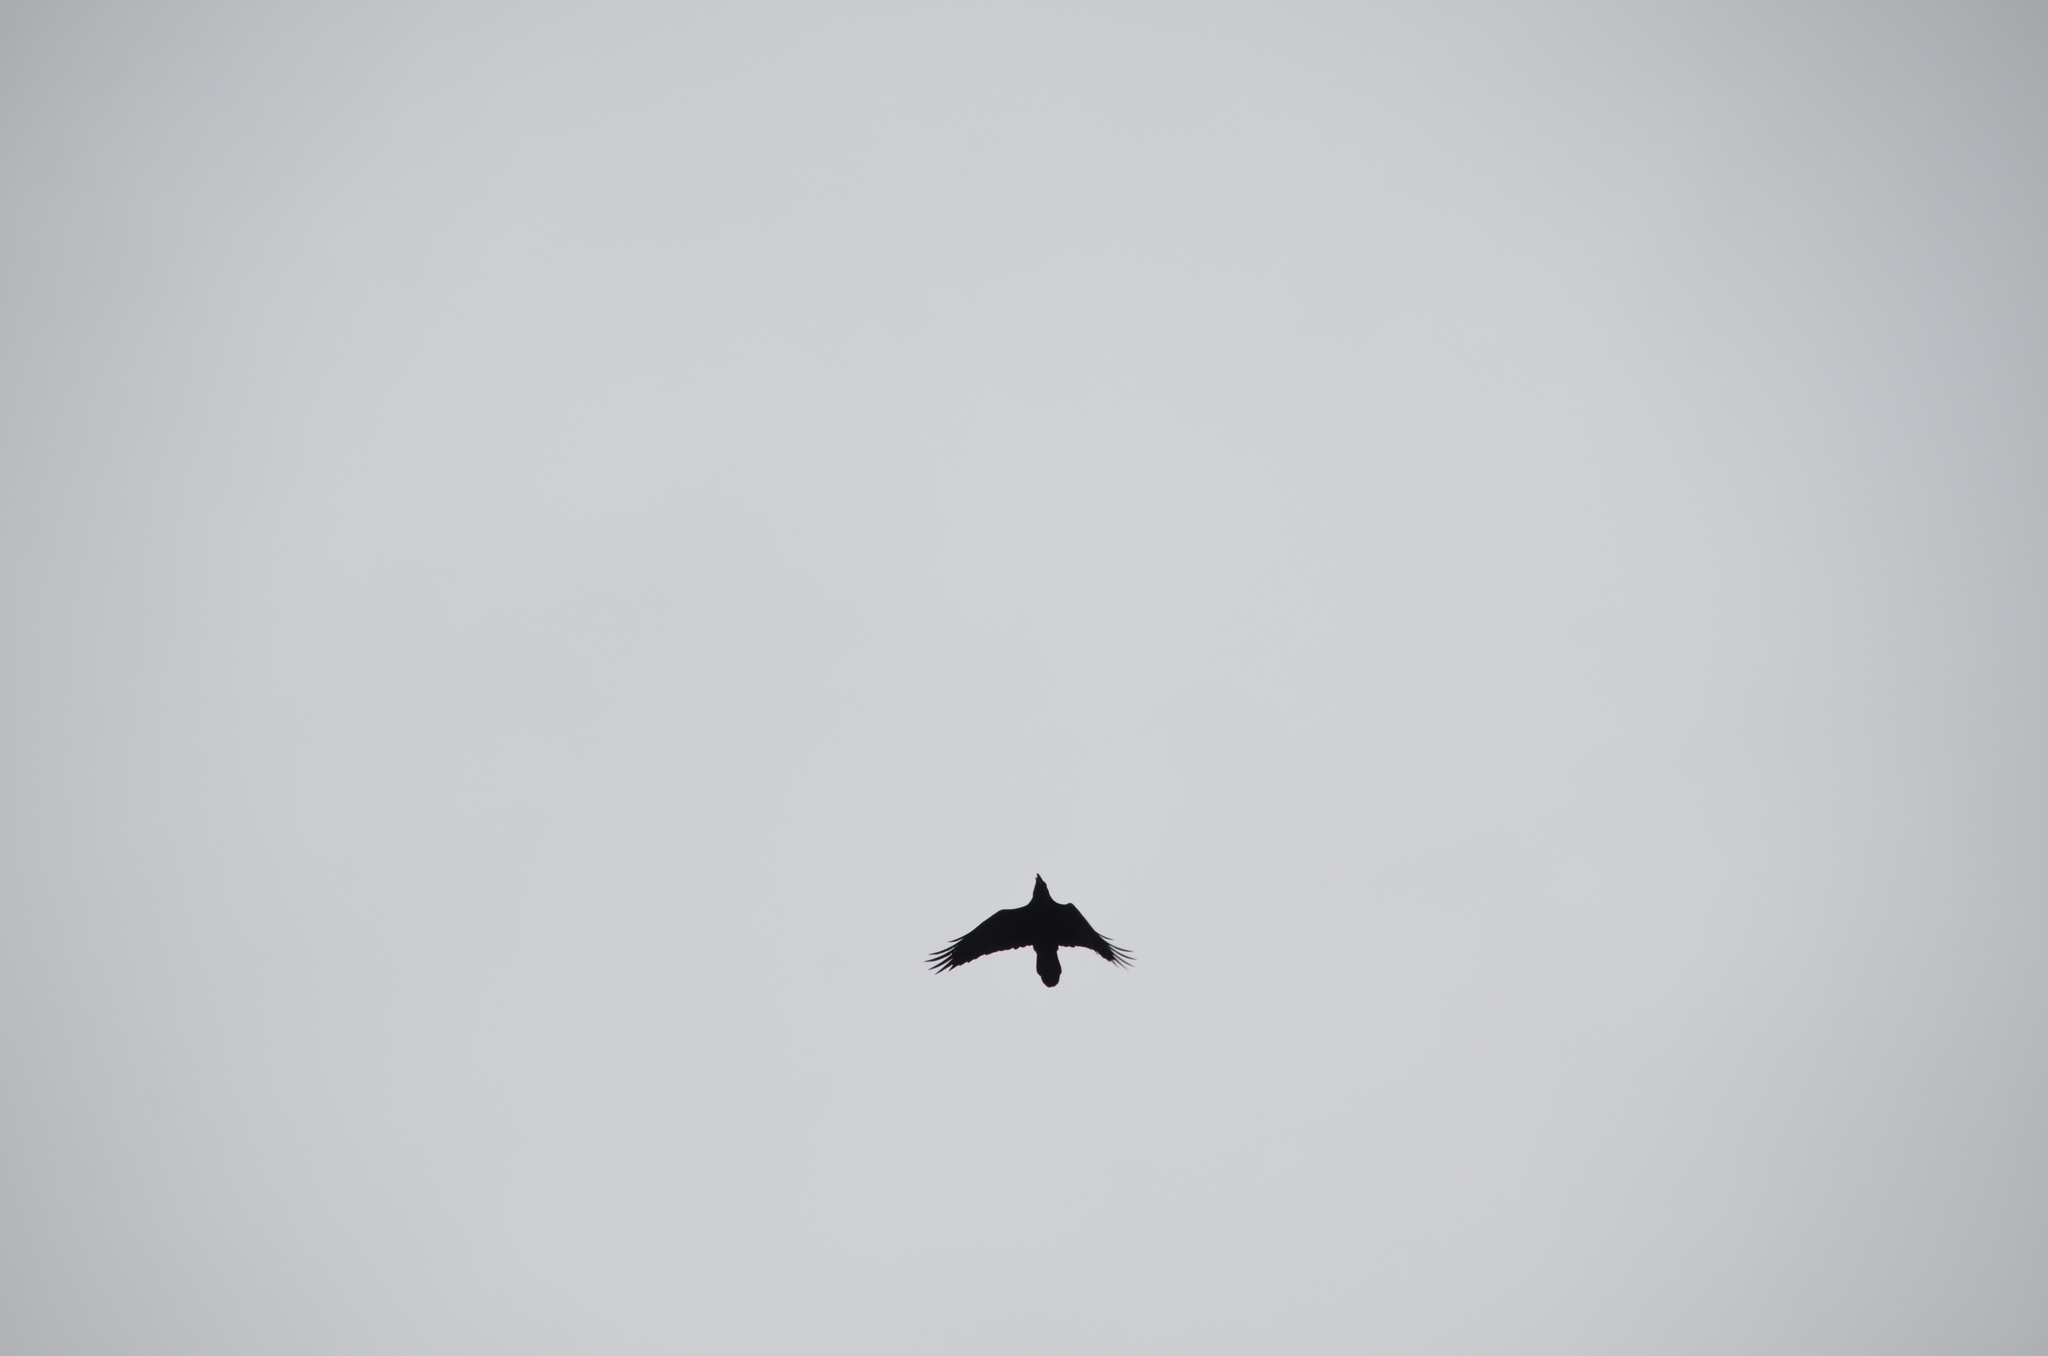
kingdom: Animalia
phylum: Chordata
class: Aves
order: Passeriformes
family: Corvidae
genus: Corvus
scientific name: Corvus corax
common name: Common raven
